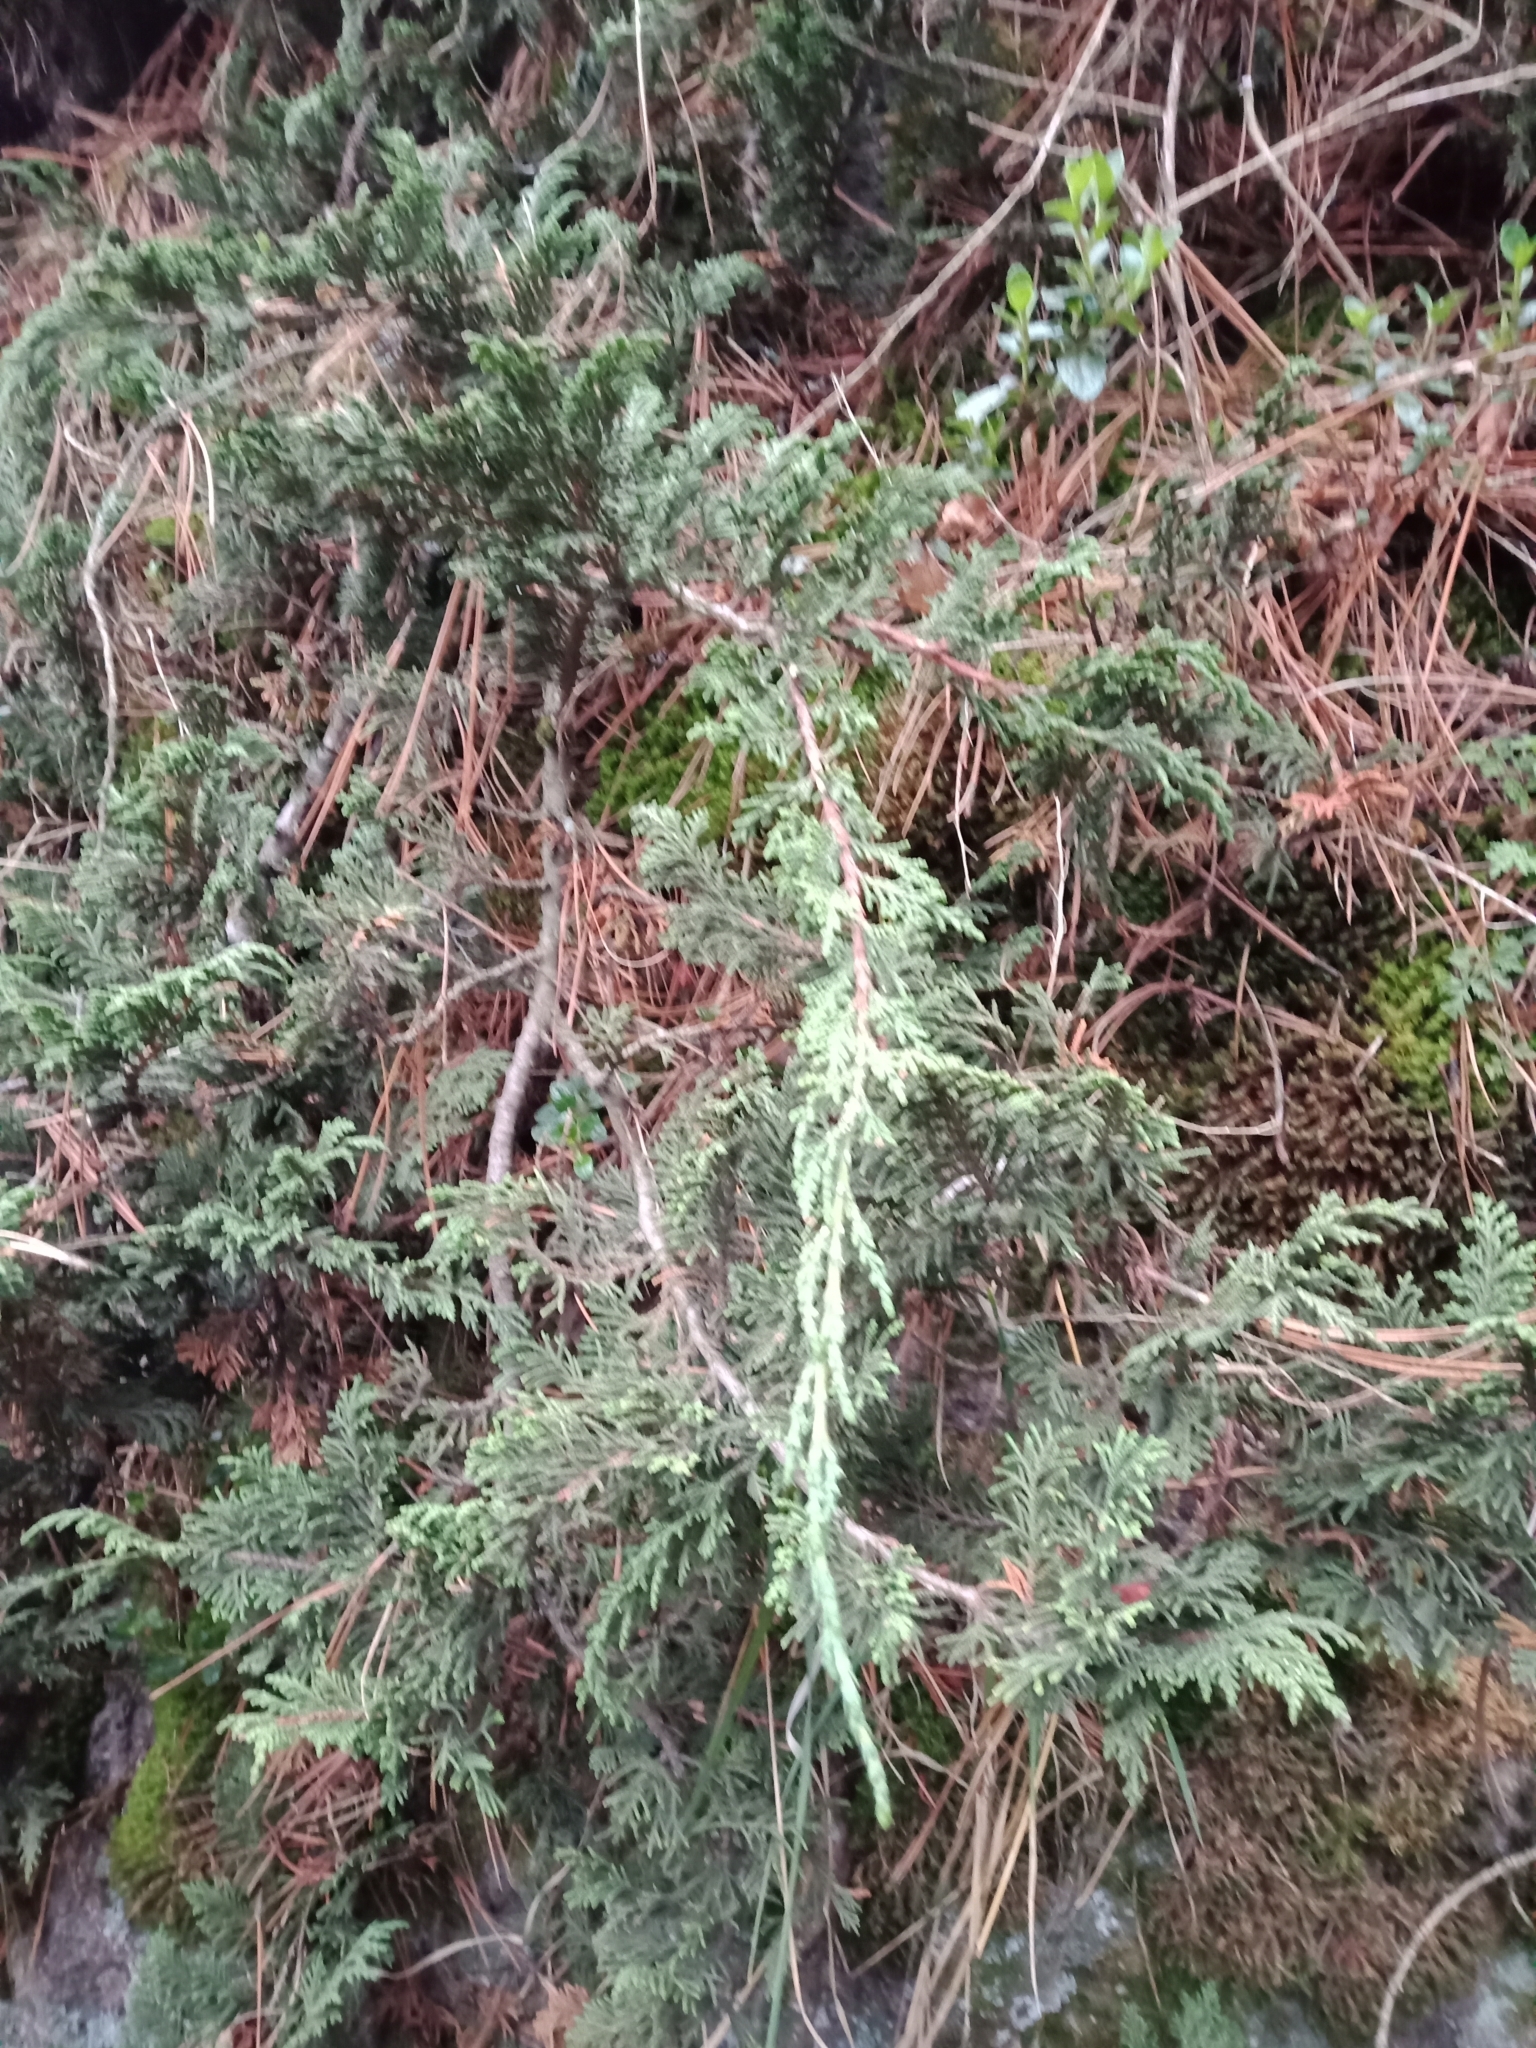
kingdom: Plantae
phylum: Tracheophyta
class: Pinopsida
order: Pinales
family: Cupressaceae
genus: Juniperus
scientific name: Juniperus monticola
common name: Mexican juniper
